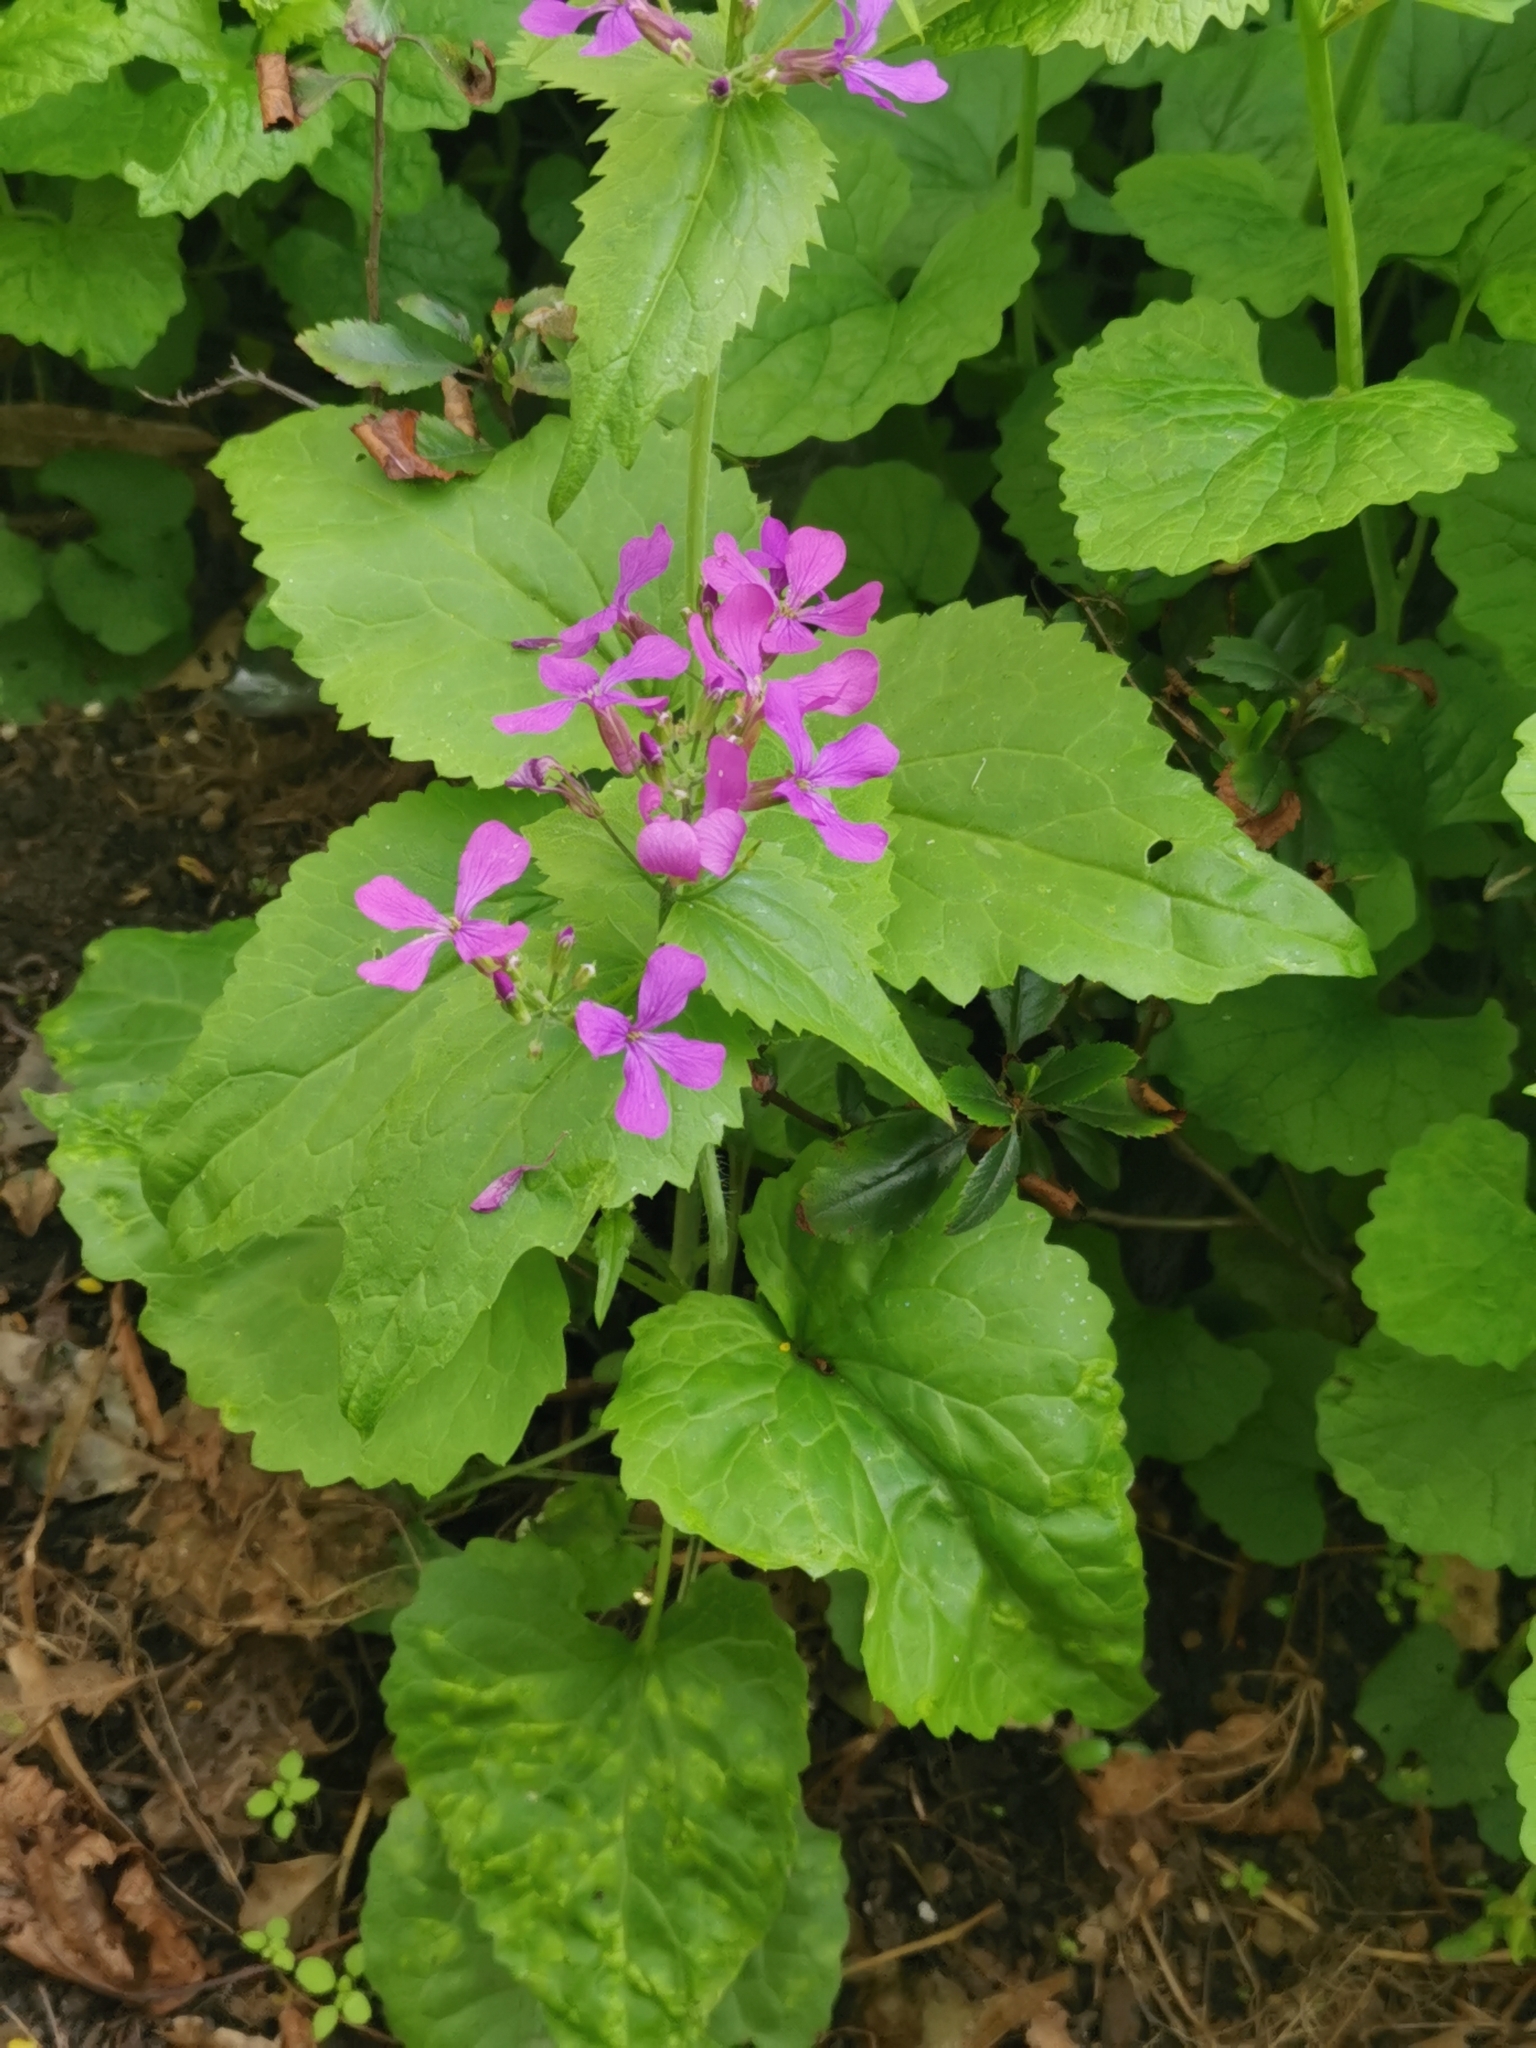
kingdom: Plantae
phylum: Tracheophyta
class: Magnoliopsida
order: Brassicales
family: Brassicaceae
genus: Lunaria
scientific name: Lunaria annua
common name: Honesty
